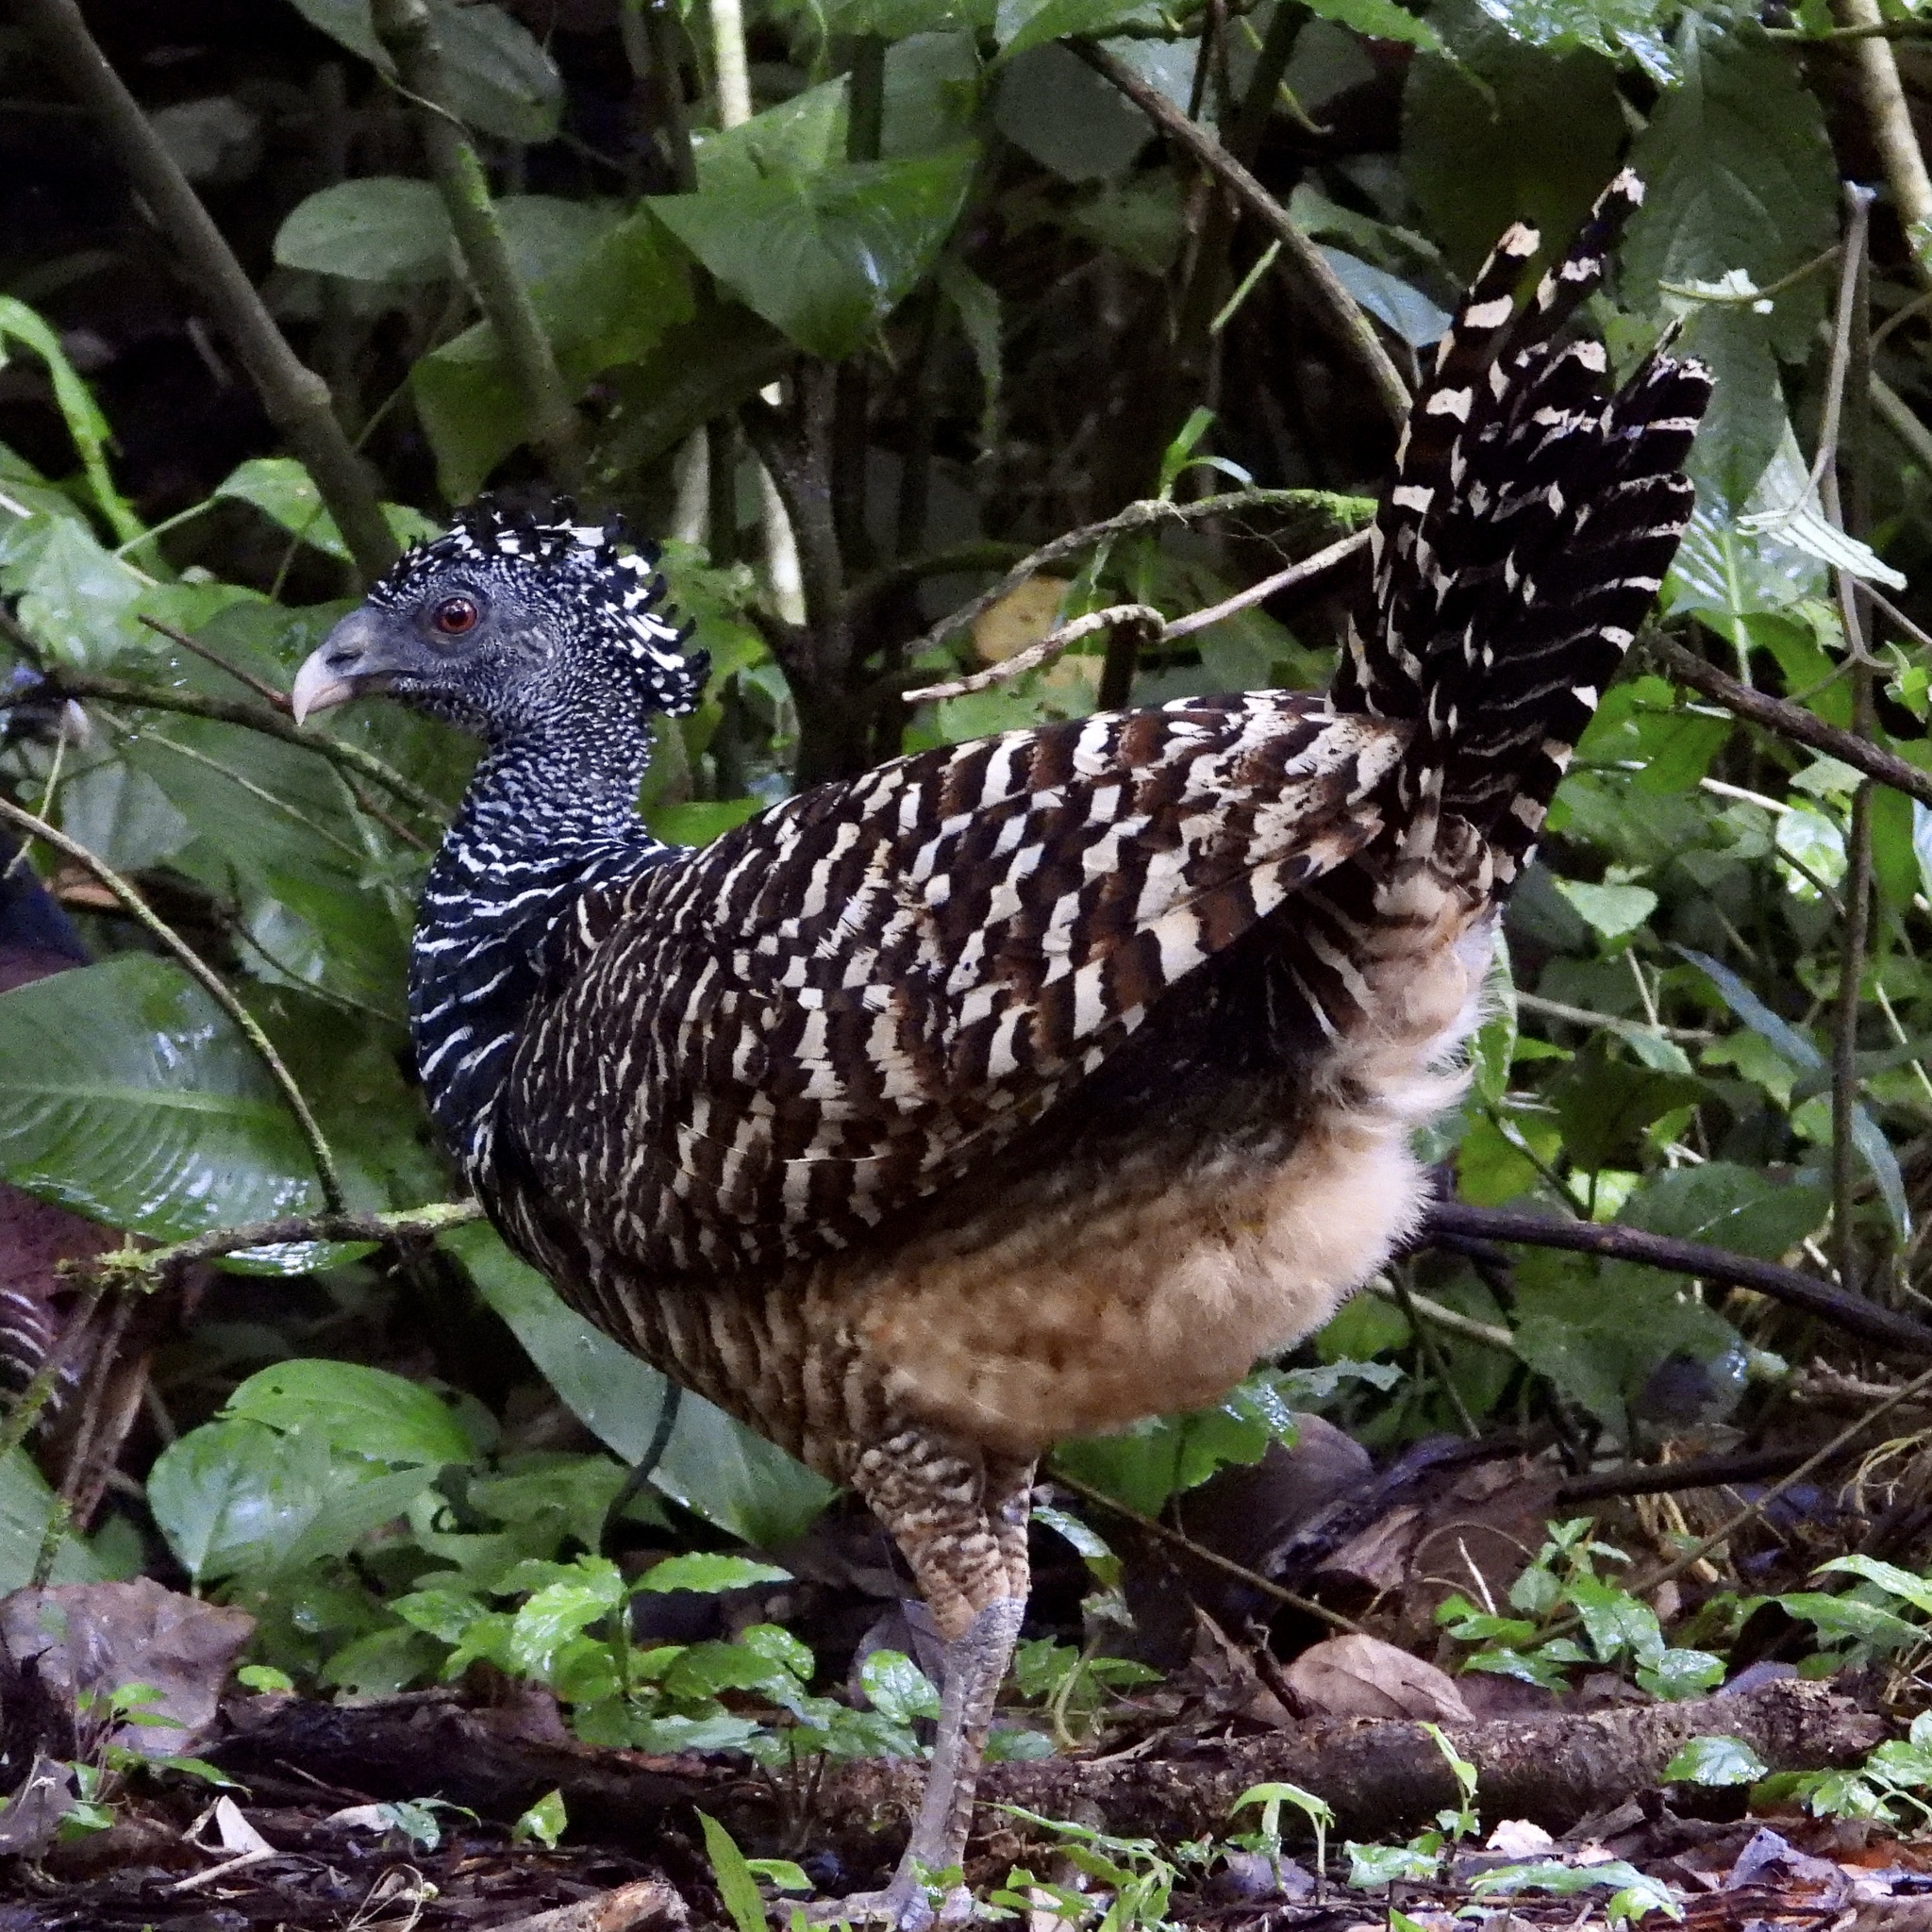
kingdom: Animalia
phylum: Chordata
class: Aves
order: Galliformes
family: Cracidae
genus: Crax
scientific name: Crax rubra
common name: Great curassow
